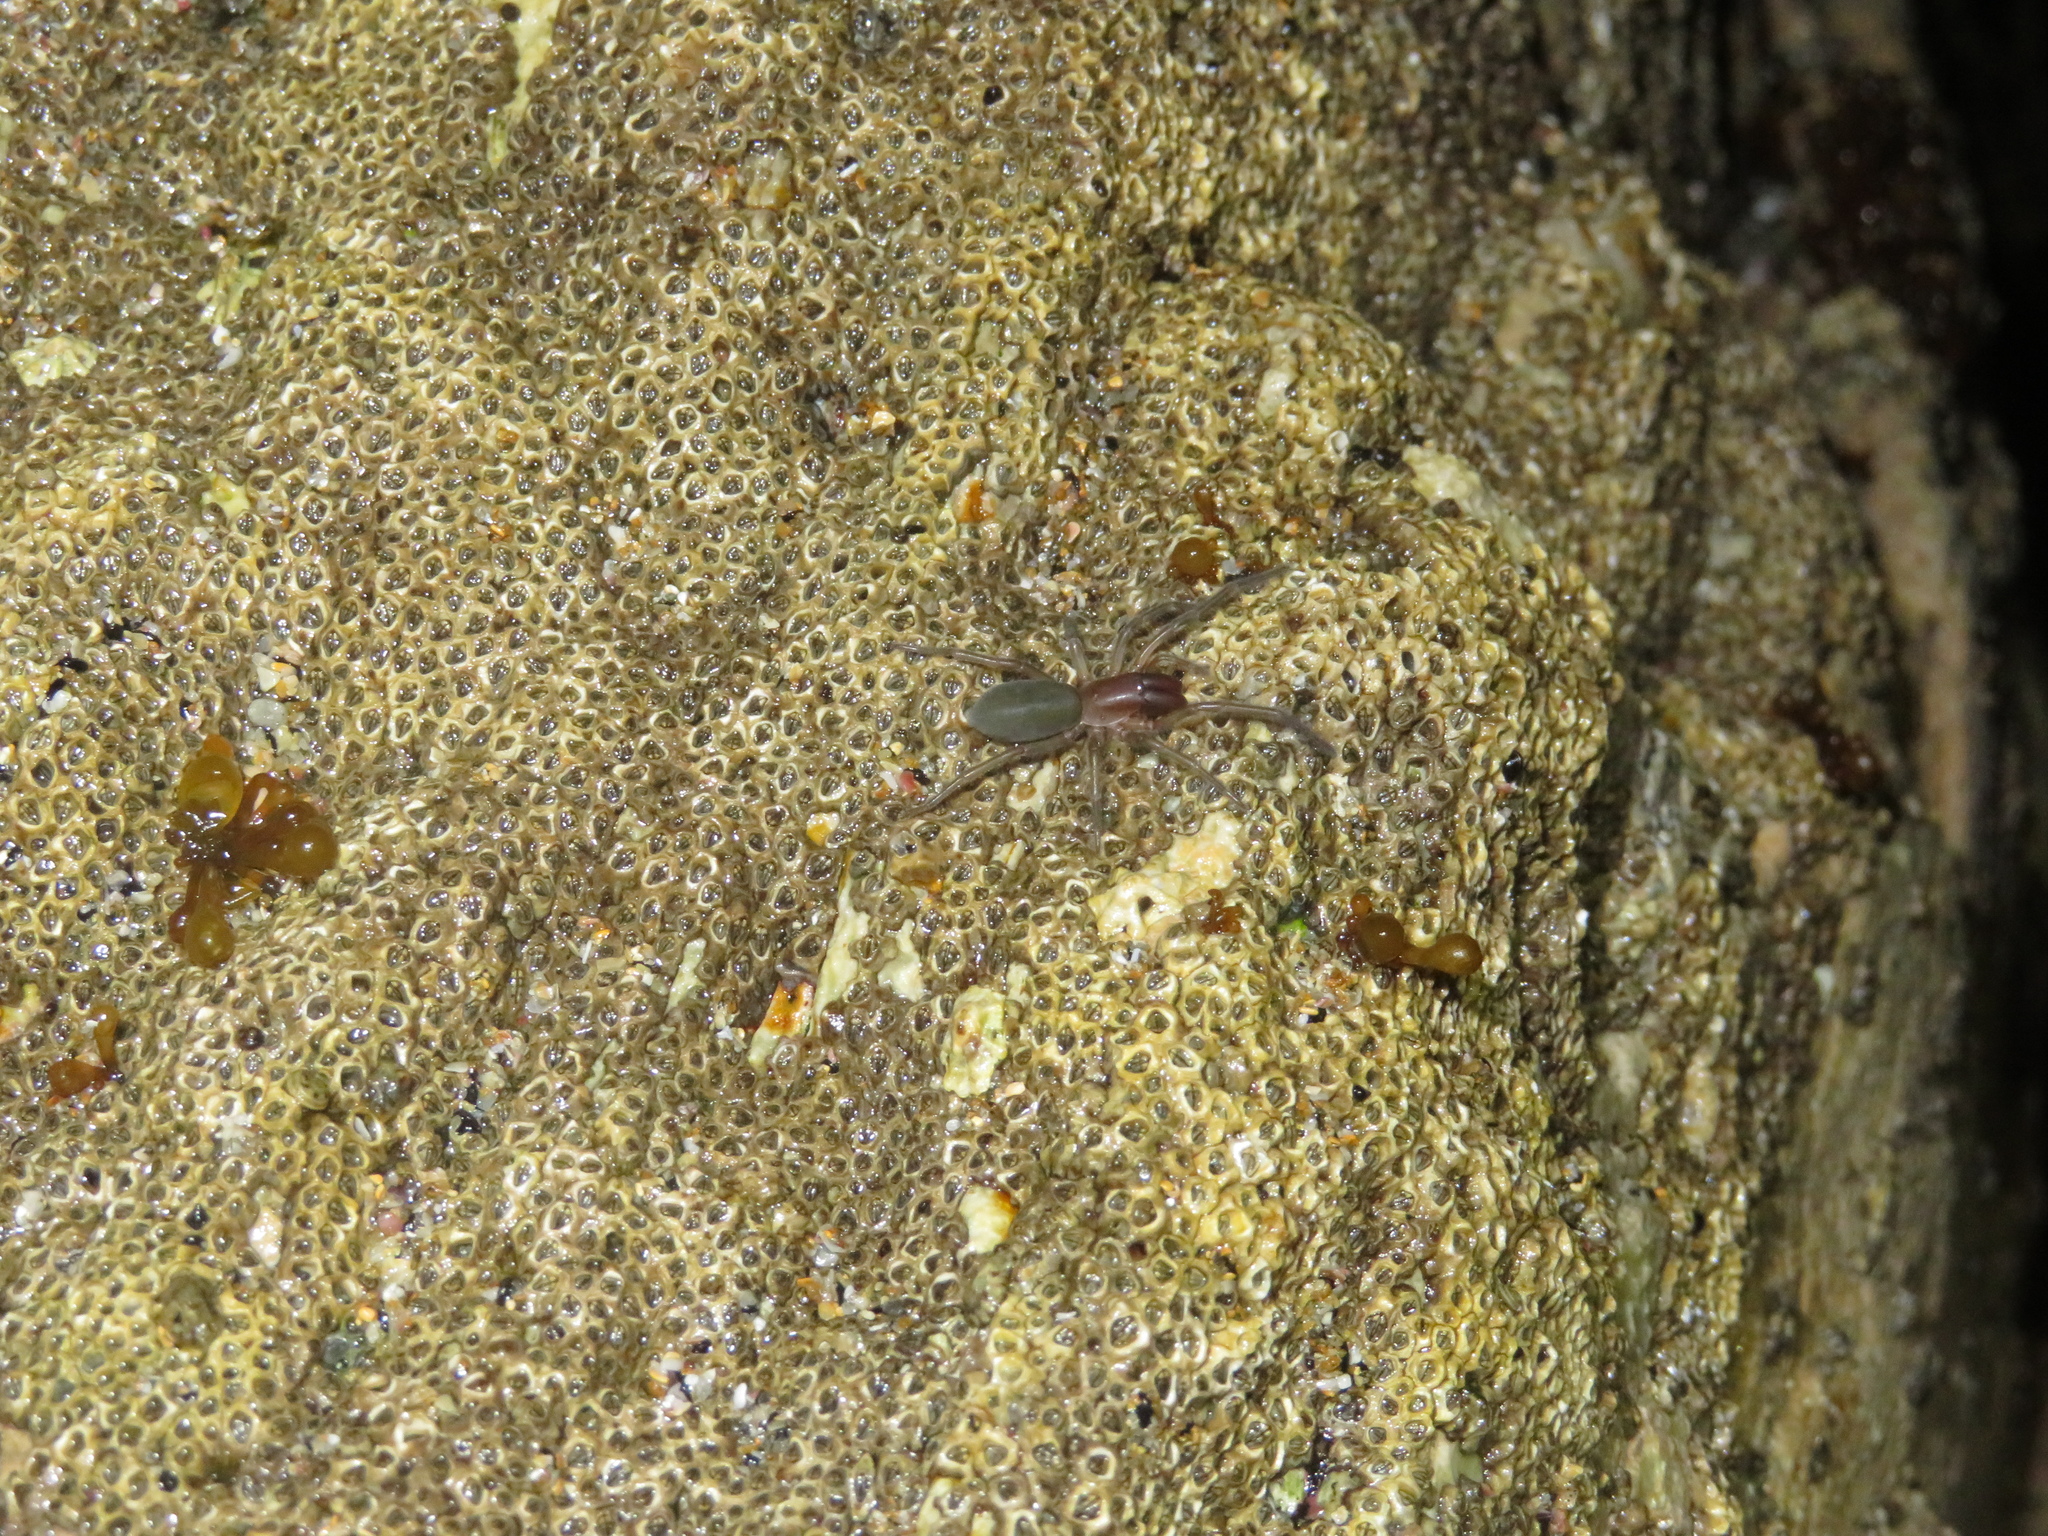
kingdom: Animalia
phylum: Arthropoda
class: Arachnida
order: Araneae
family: Desidae
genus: Desis
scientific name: Desis marina
